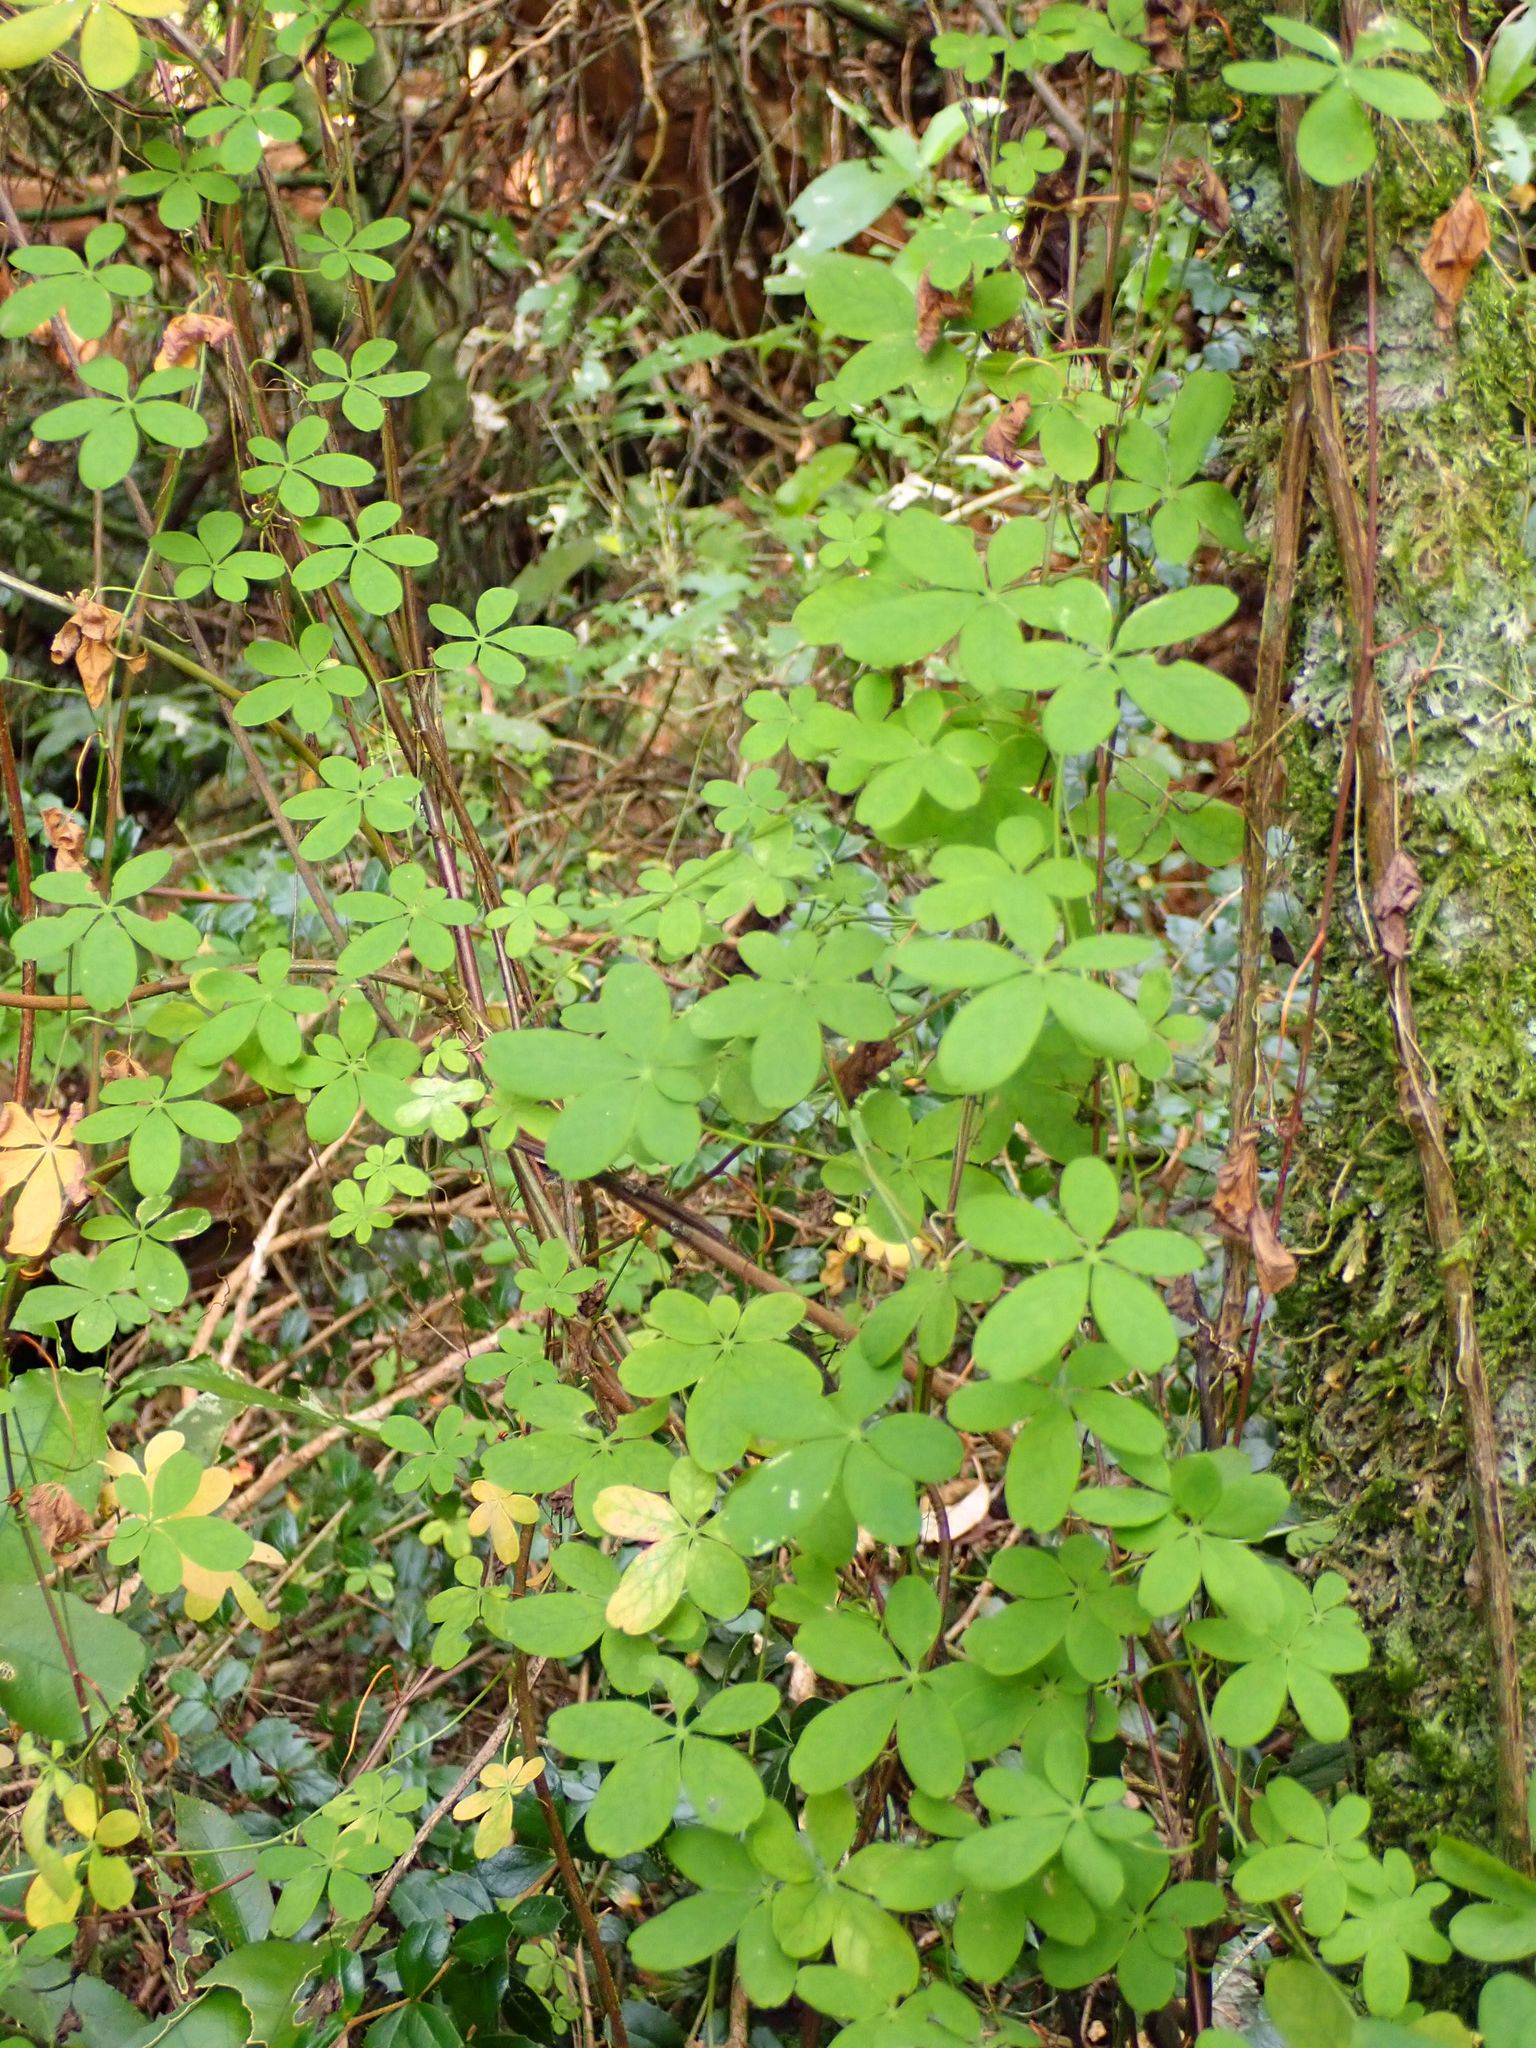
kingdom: Plantae
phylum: Tracheophyta
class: Magnoliopsida
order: Brassicales
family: Tropaeolaceae
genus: Tropaeolum
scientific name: Tropaeolum speciosum
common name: Flame nasturtium
